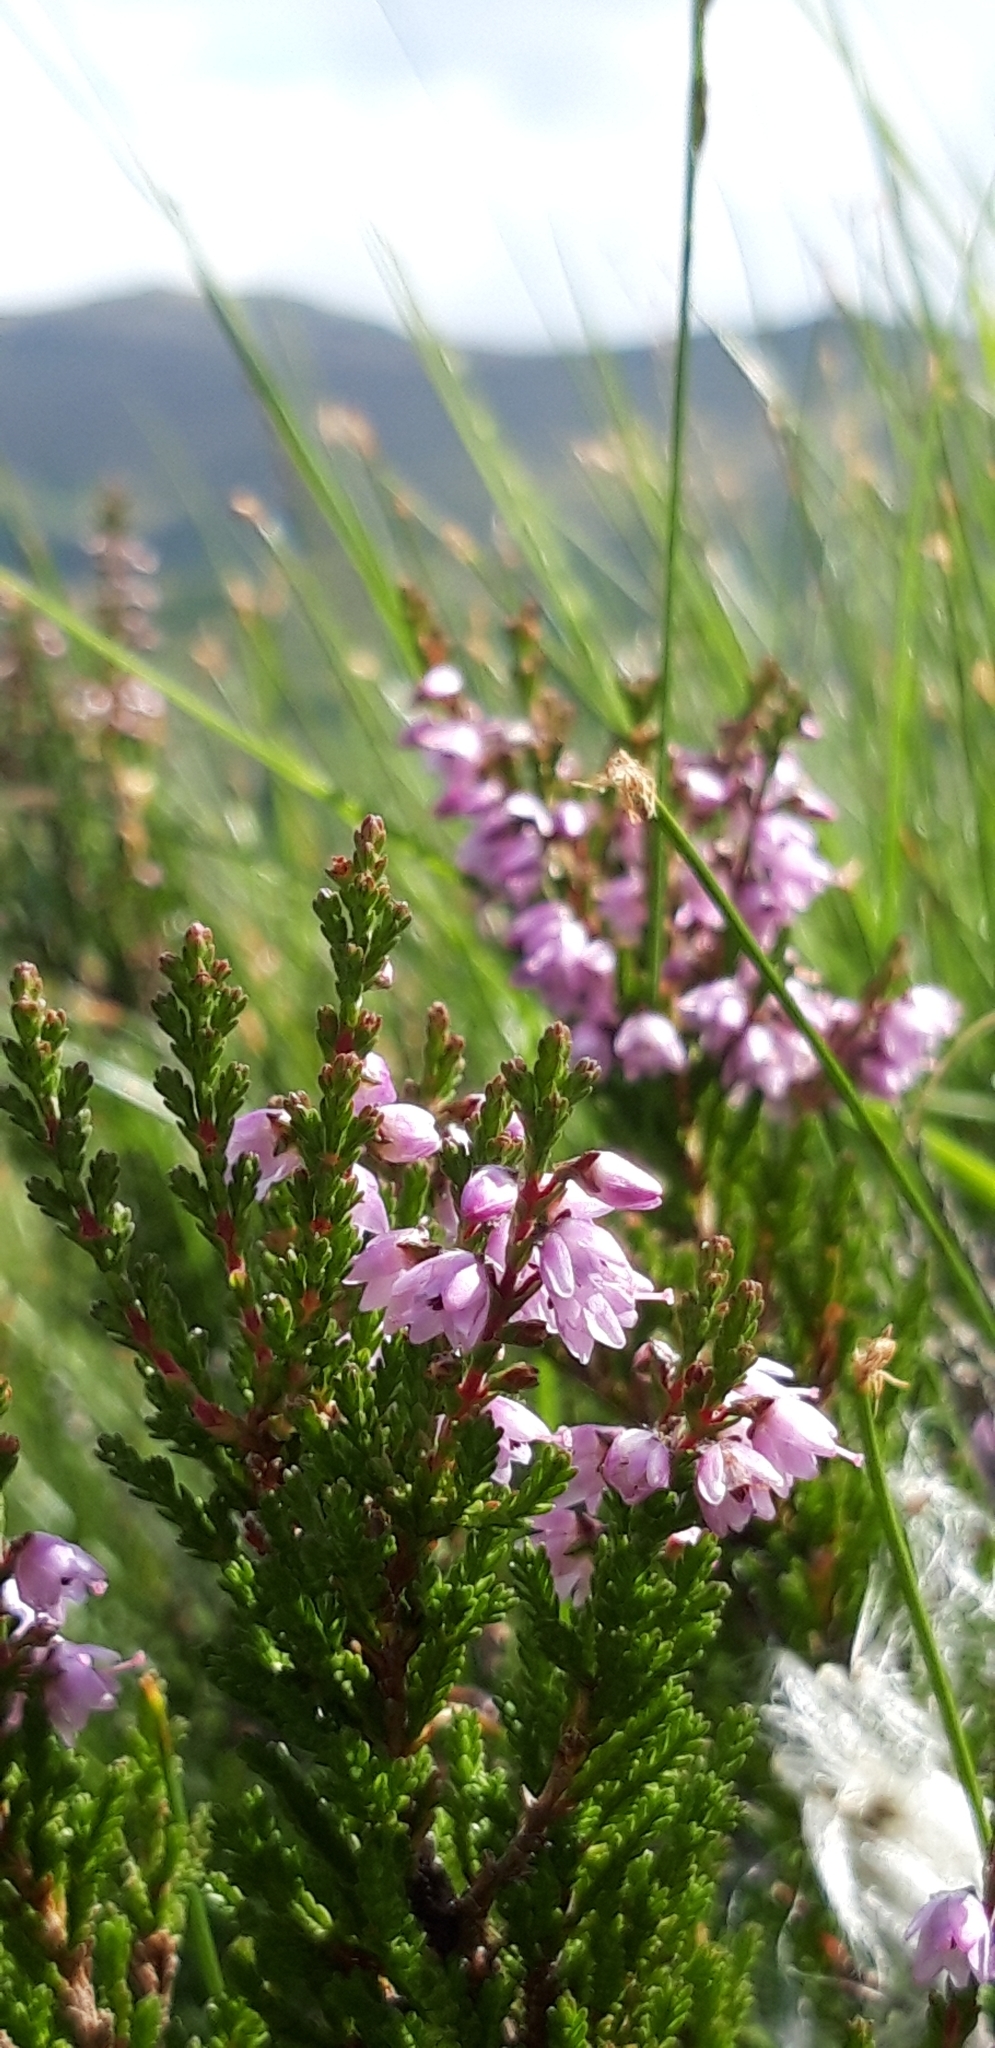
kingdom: Plantae
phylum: Tracheophyta
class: Magnoliopsida
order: Ericales
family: Ericaceae
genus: Calluna
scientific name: Calluna vulgaris
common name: Heather
